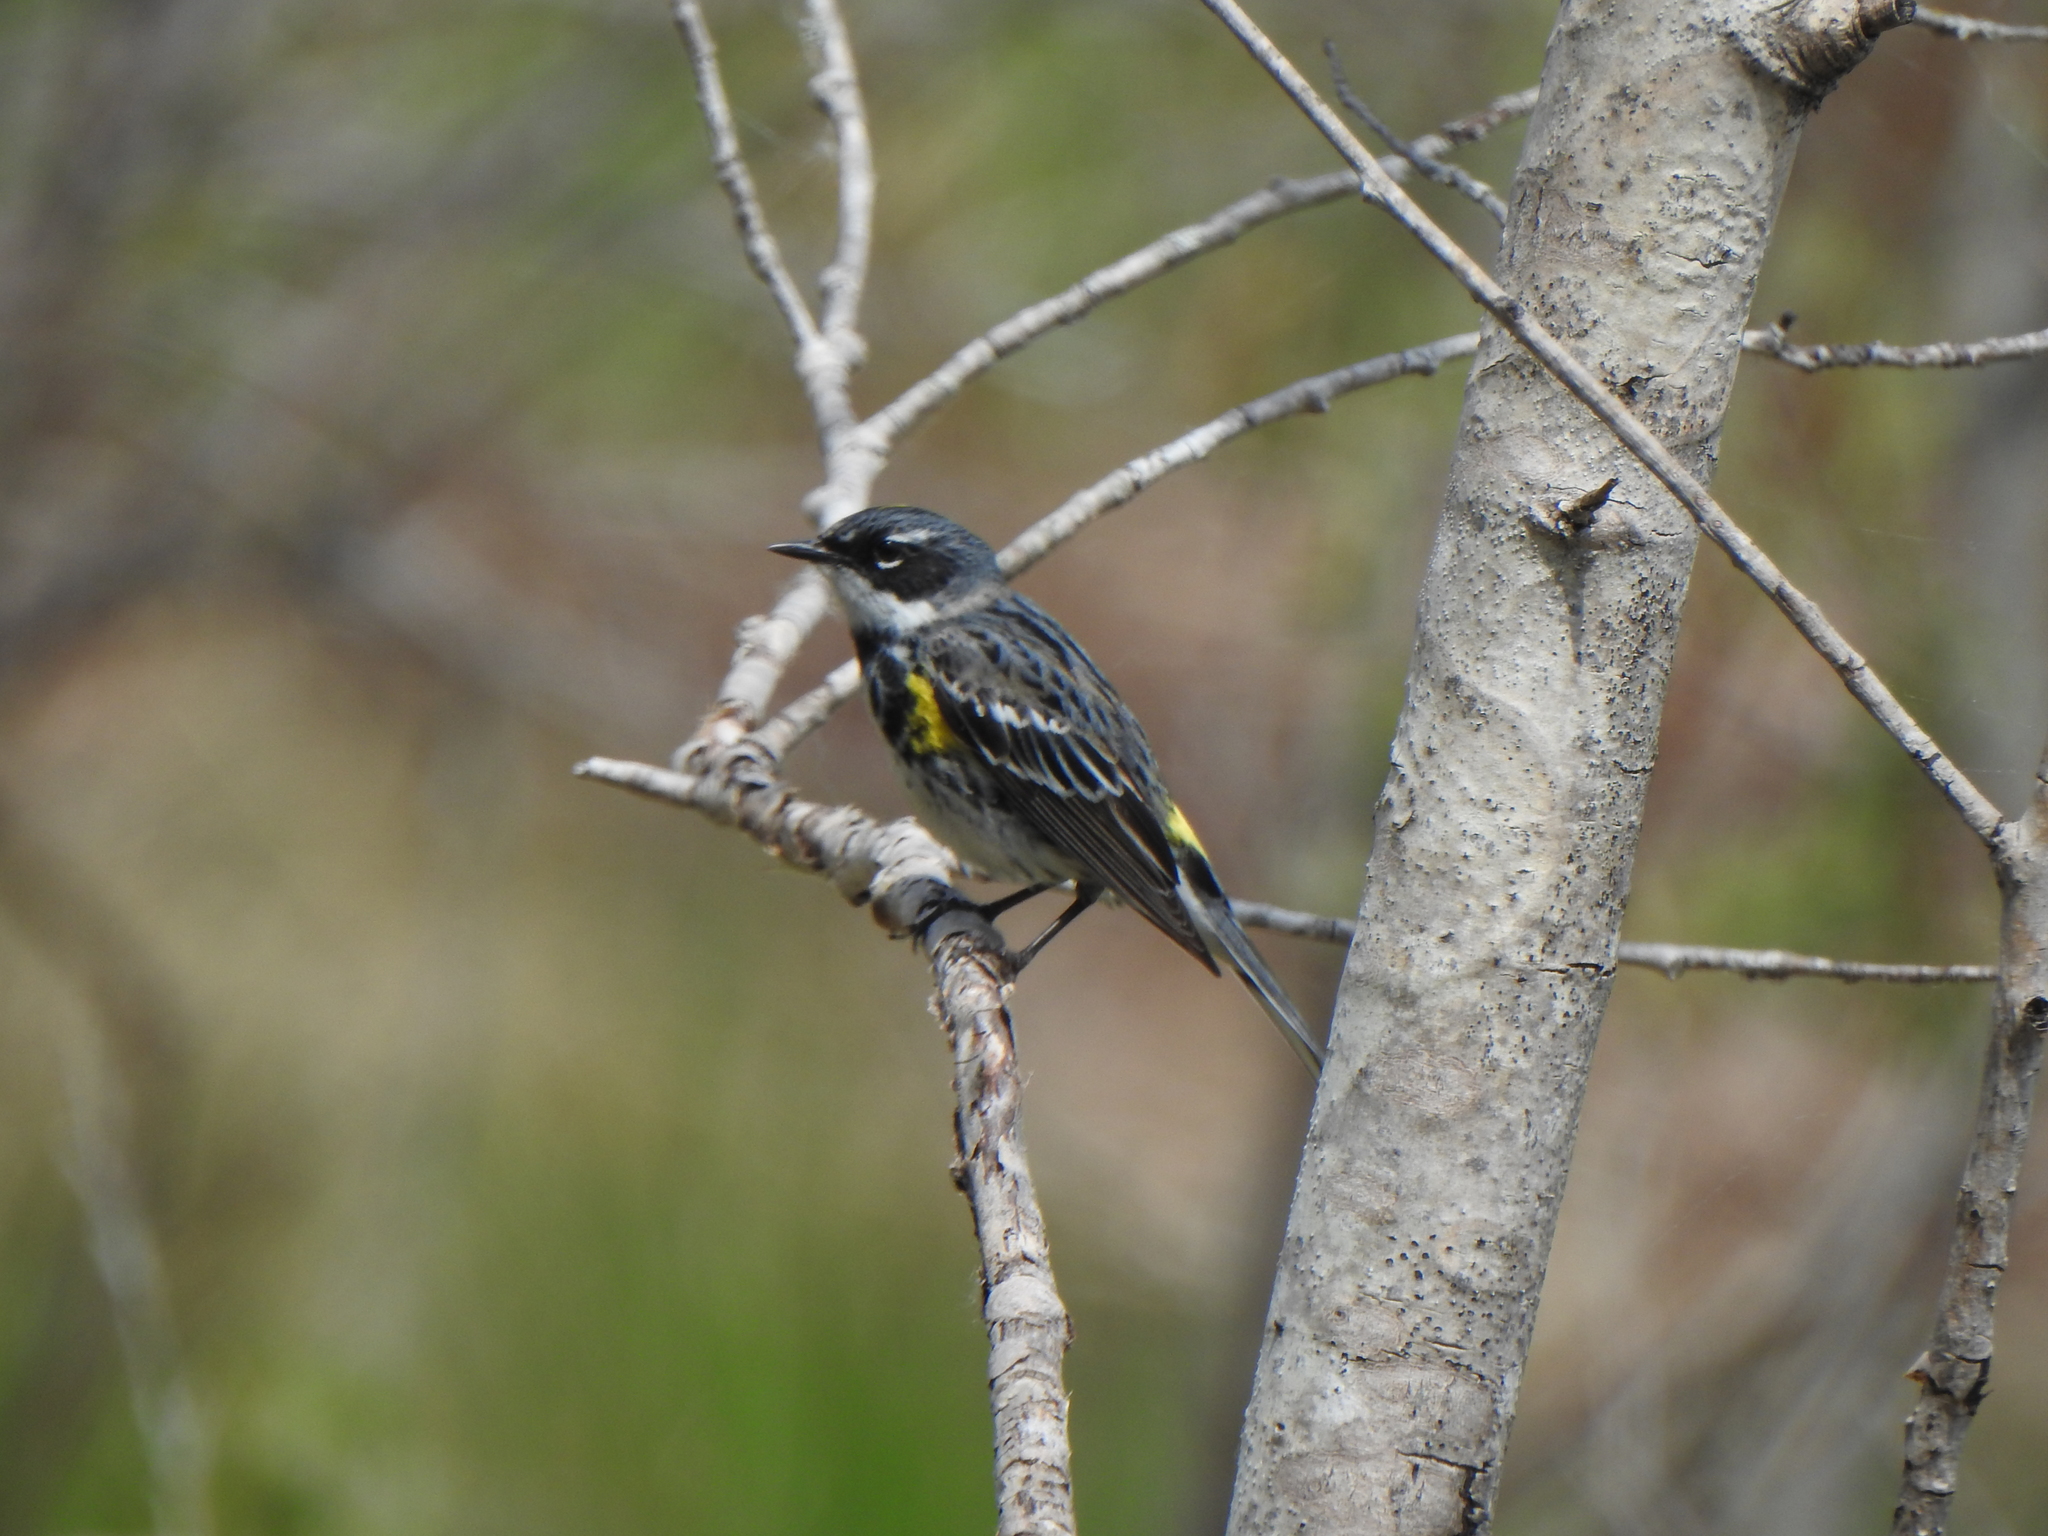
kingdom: Animalia
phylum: Chordata
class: Aves
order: Passeriformes
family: Parulidae
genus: Setophaga
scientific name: Setophaga coronata
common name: Myrtle warbler
